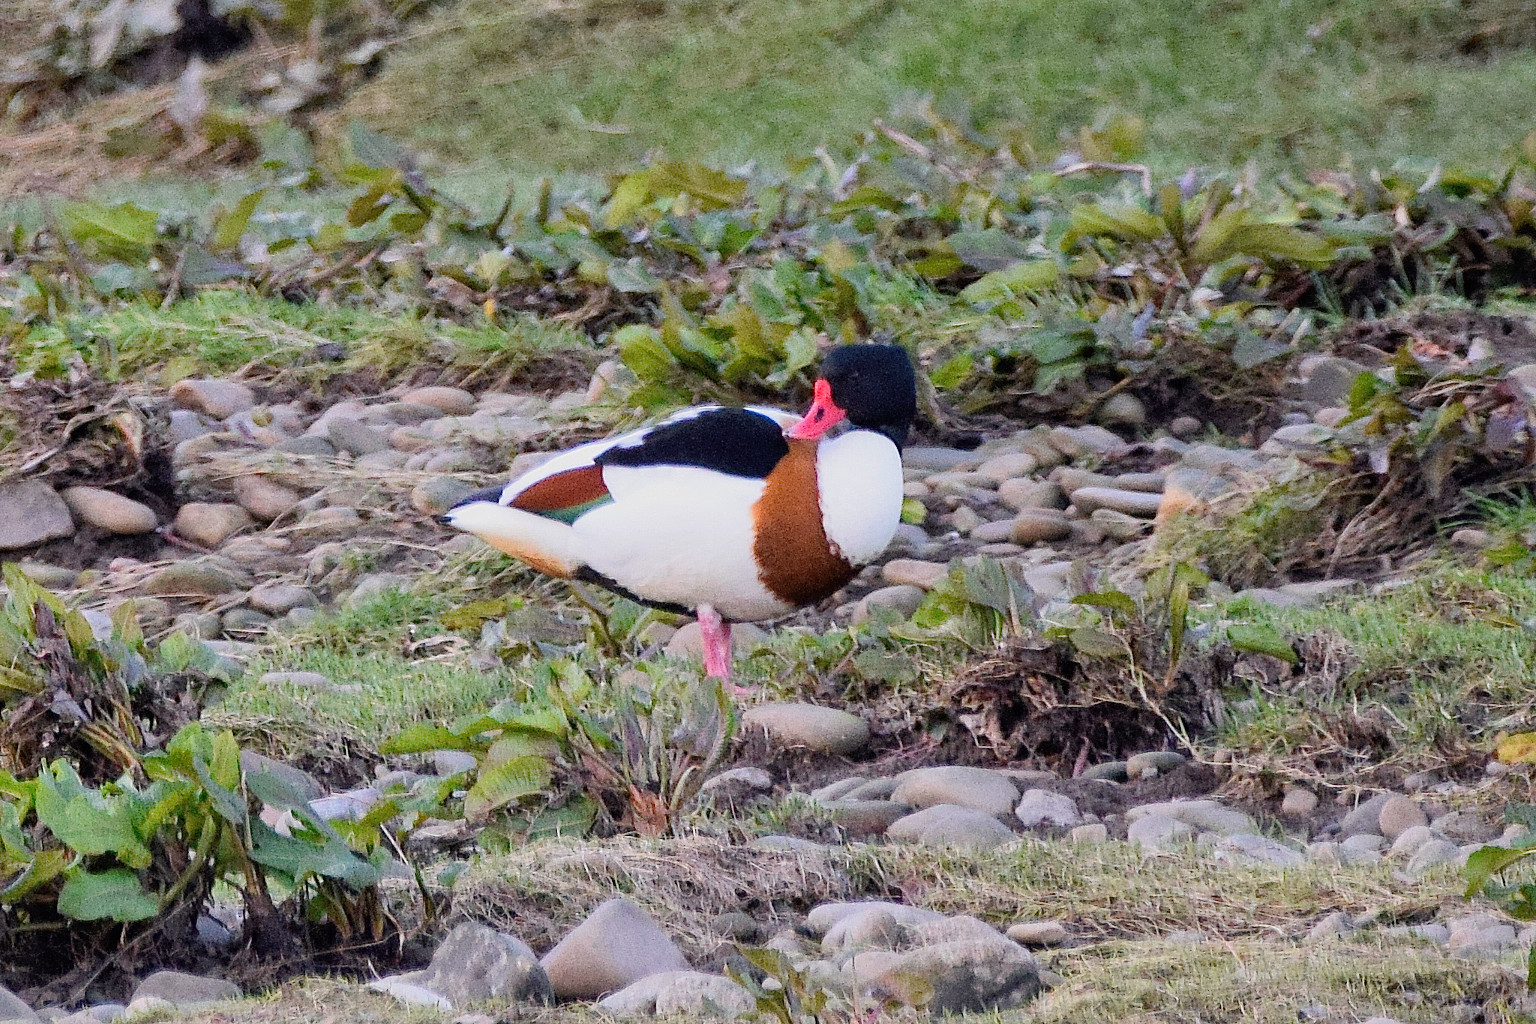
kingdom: Animalia
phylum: Chordata
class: Aves
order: Anseriformes
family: Anatidae
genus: Tadorna
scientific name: Tadorna tadorna
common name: Common shelduck
